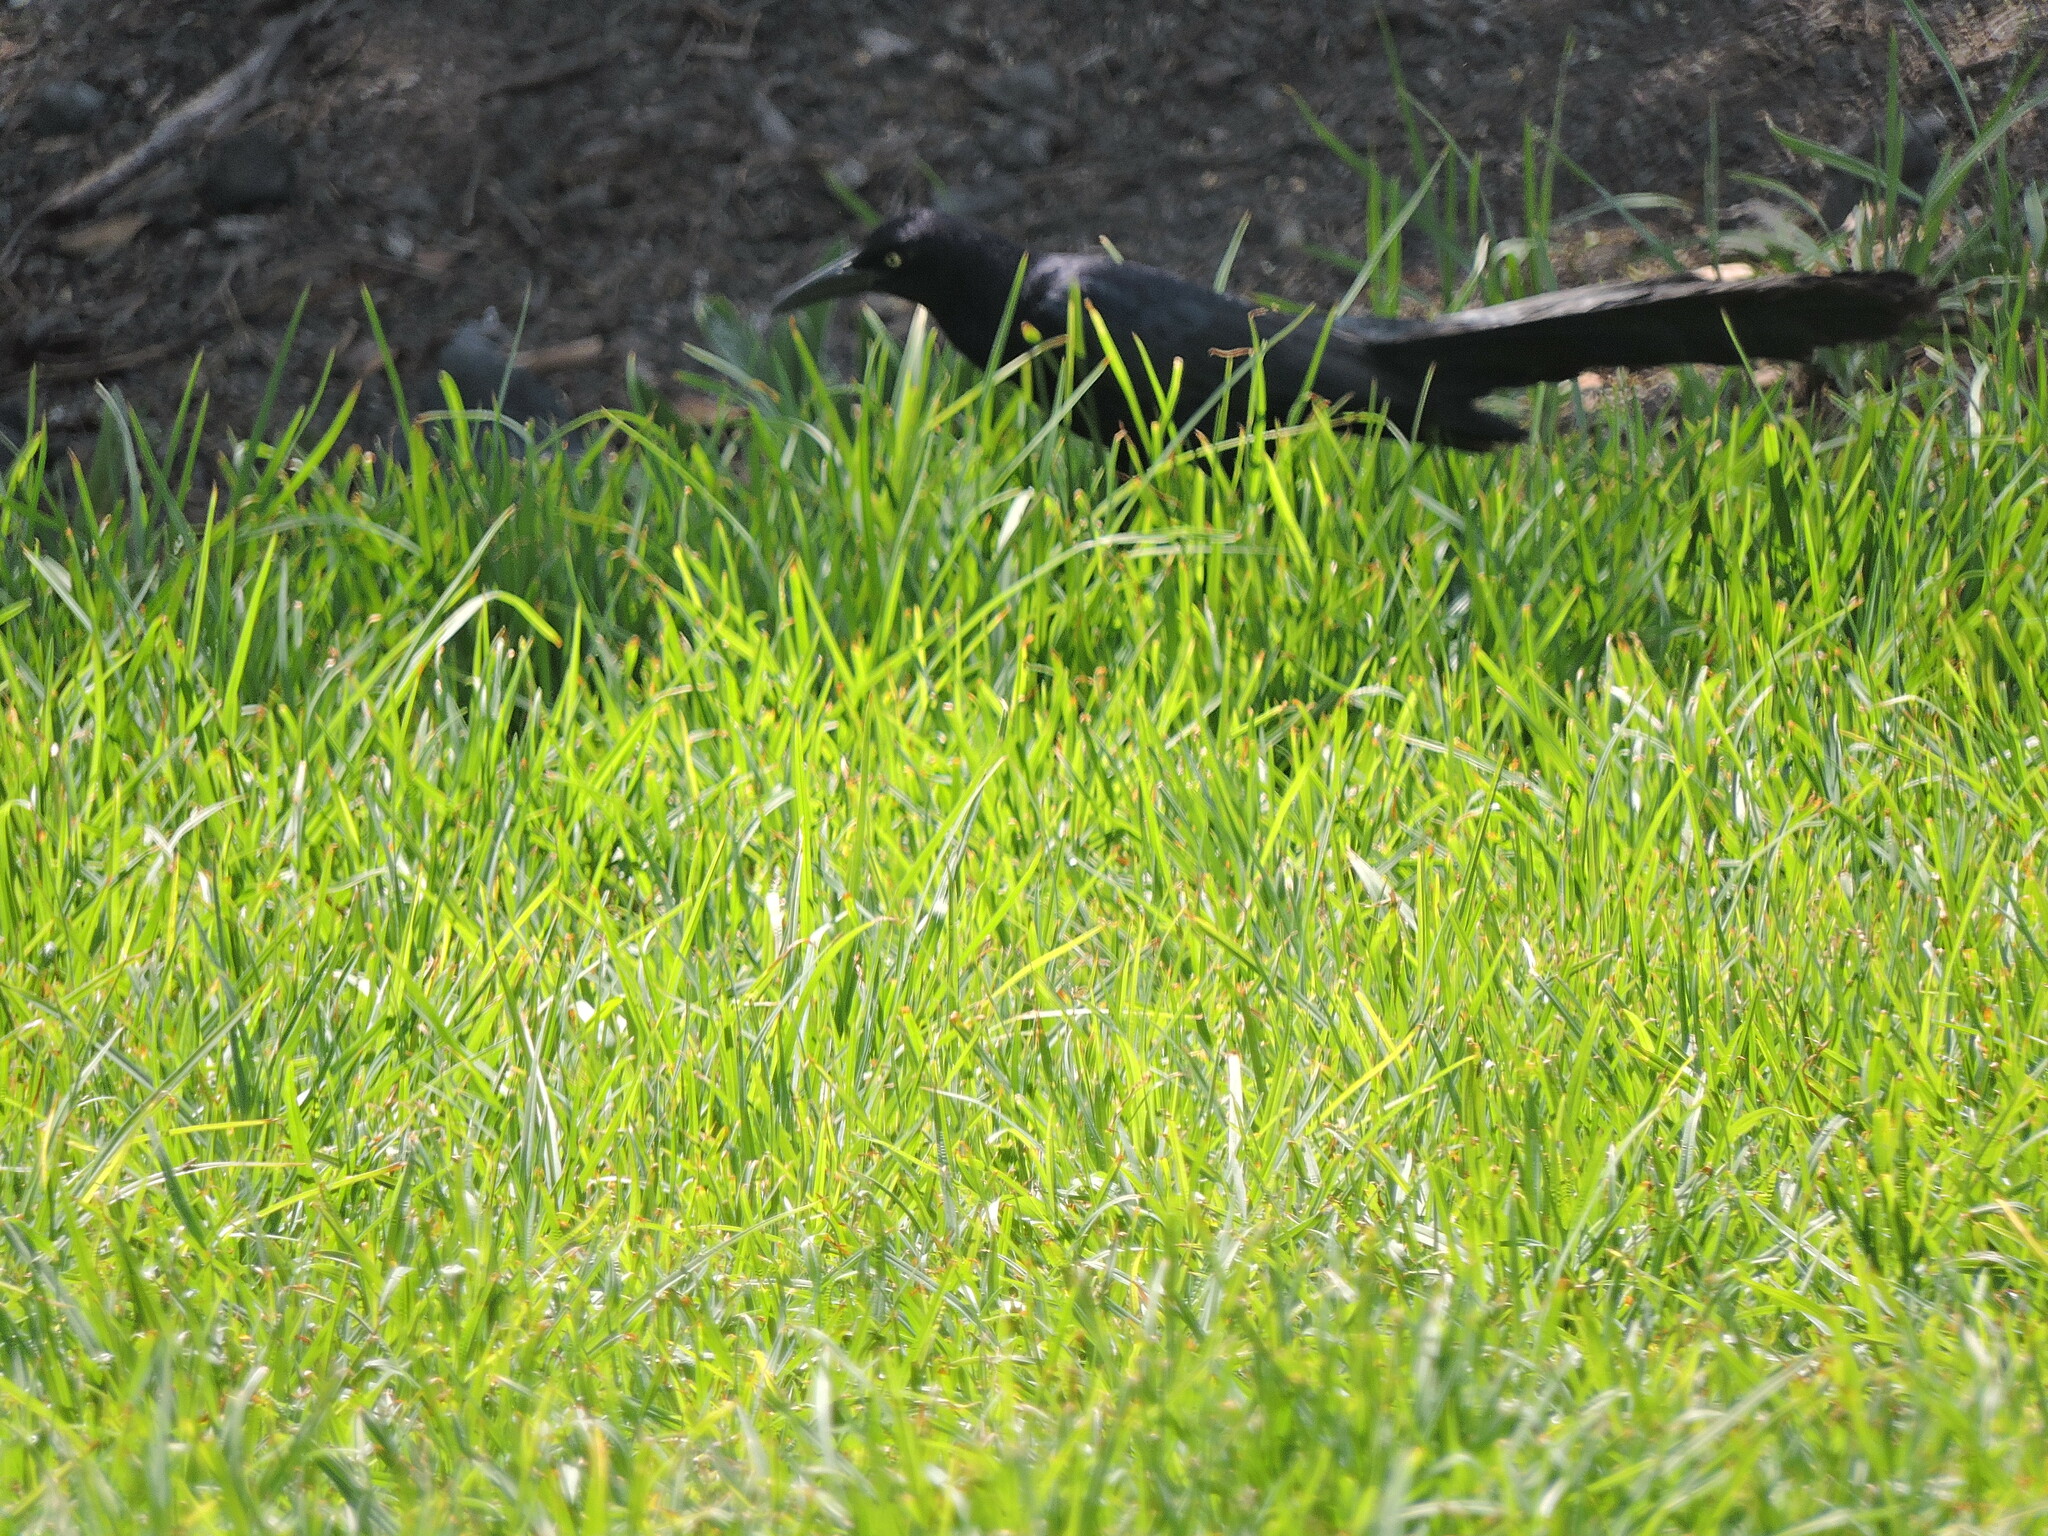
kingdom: Animalia
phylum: Chordata
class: Aves
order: Passeriformes
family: Icteridae
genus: Quiscalus
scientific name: Quiscalus mexicanus
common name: Great-tailed grackle
